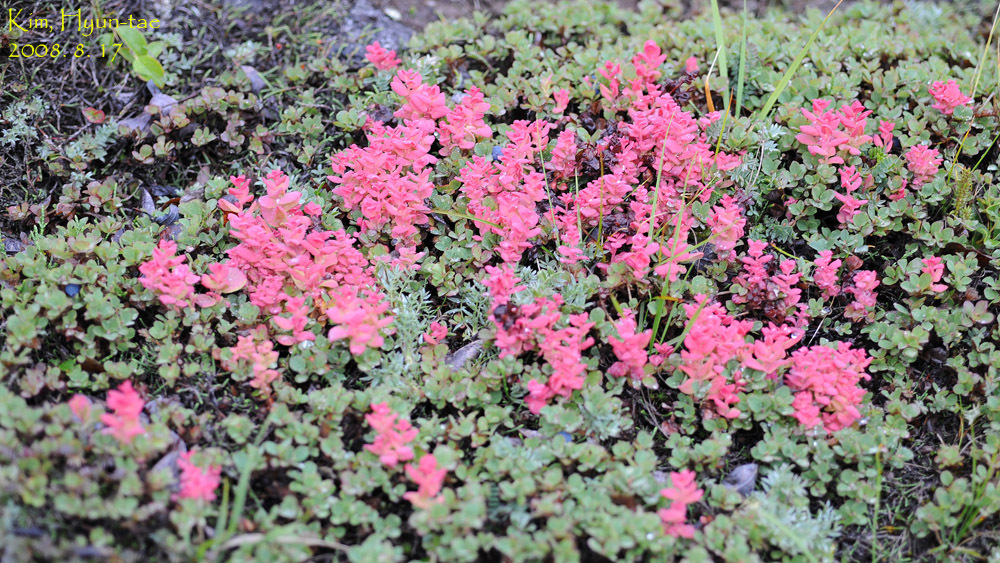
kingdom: Fungi
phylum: Basidiomycota
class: Exobasidiomycetes
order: Exobasidiales
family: Exobasidiaceae
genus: Exobasidium
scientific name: Exobasidium vaccinii-uliginosi
